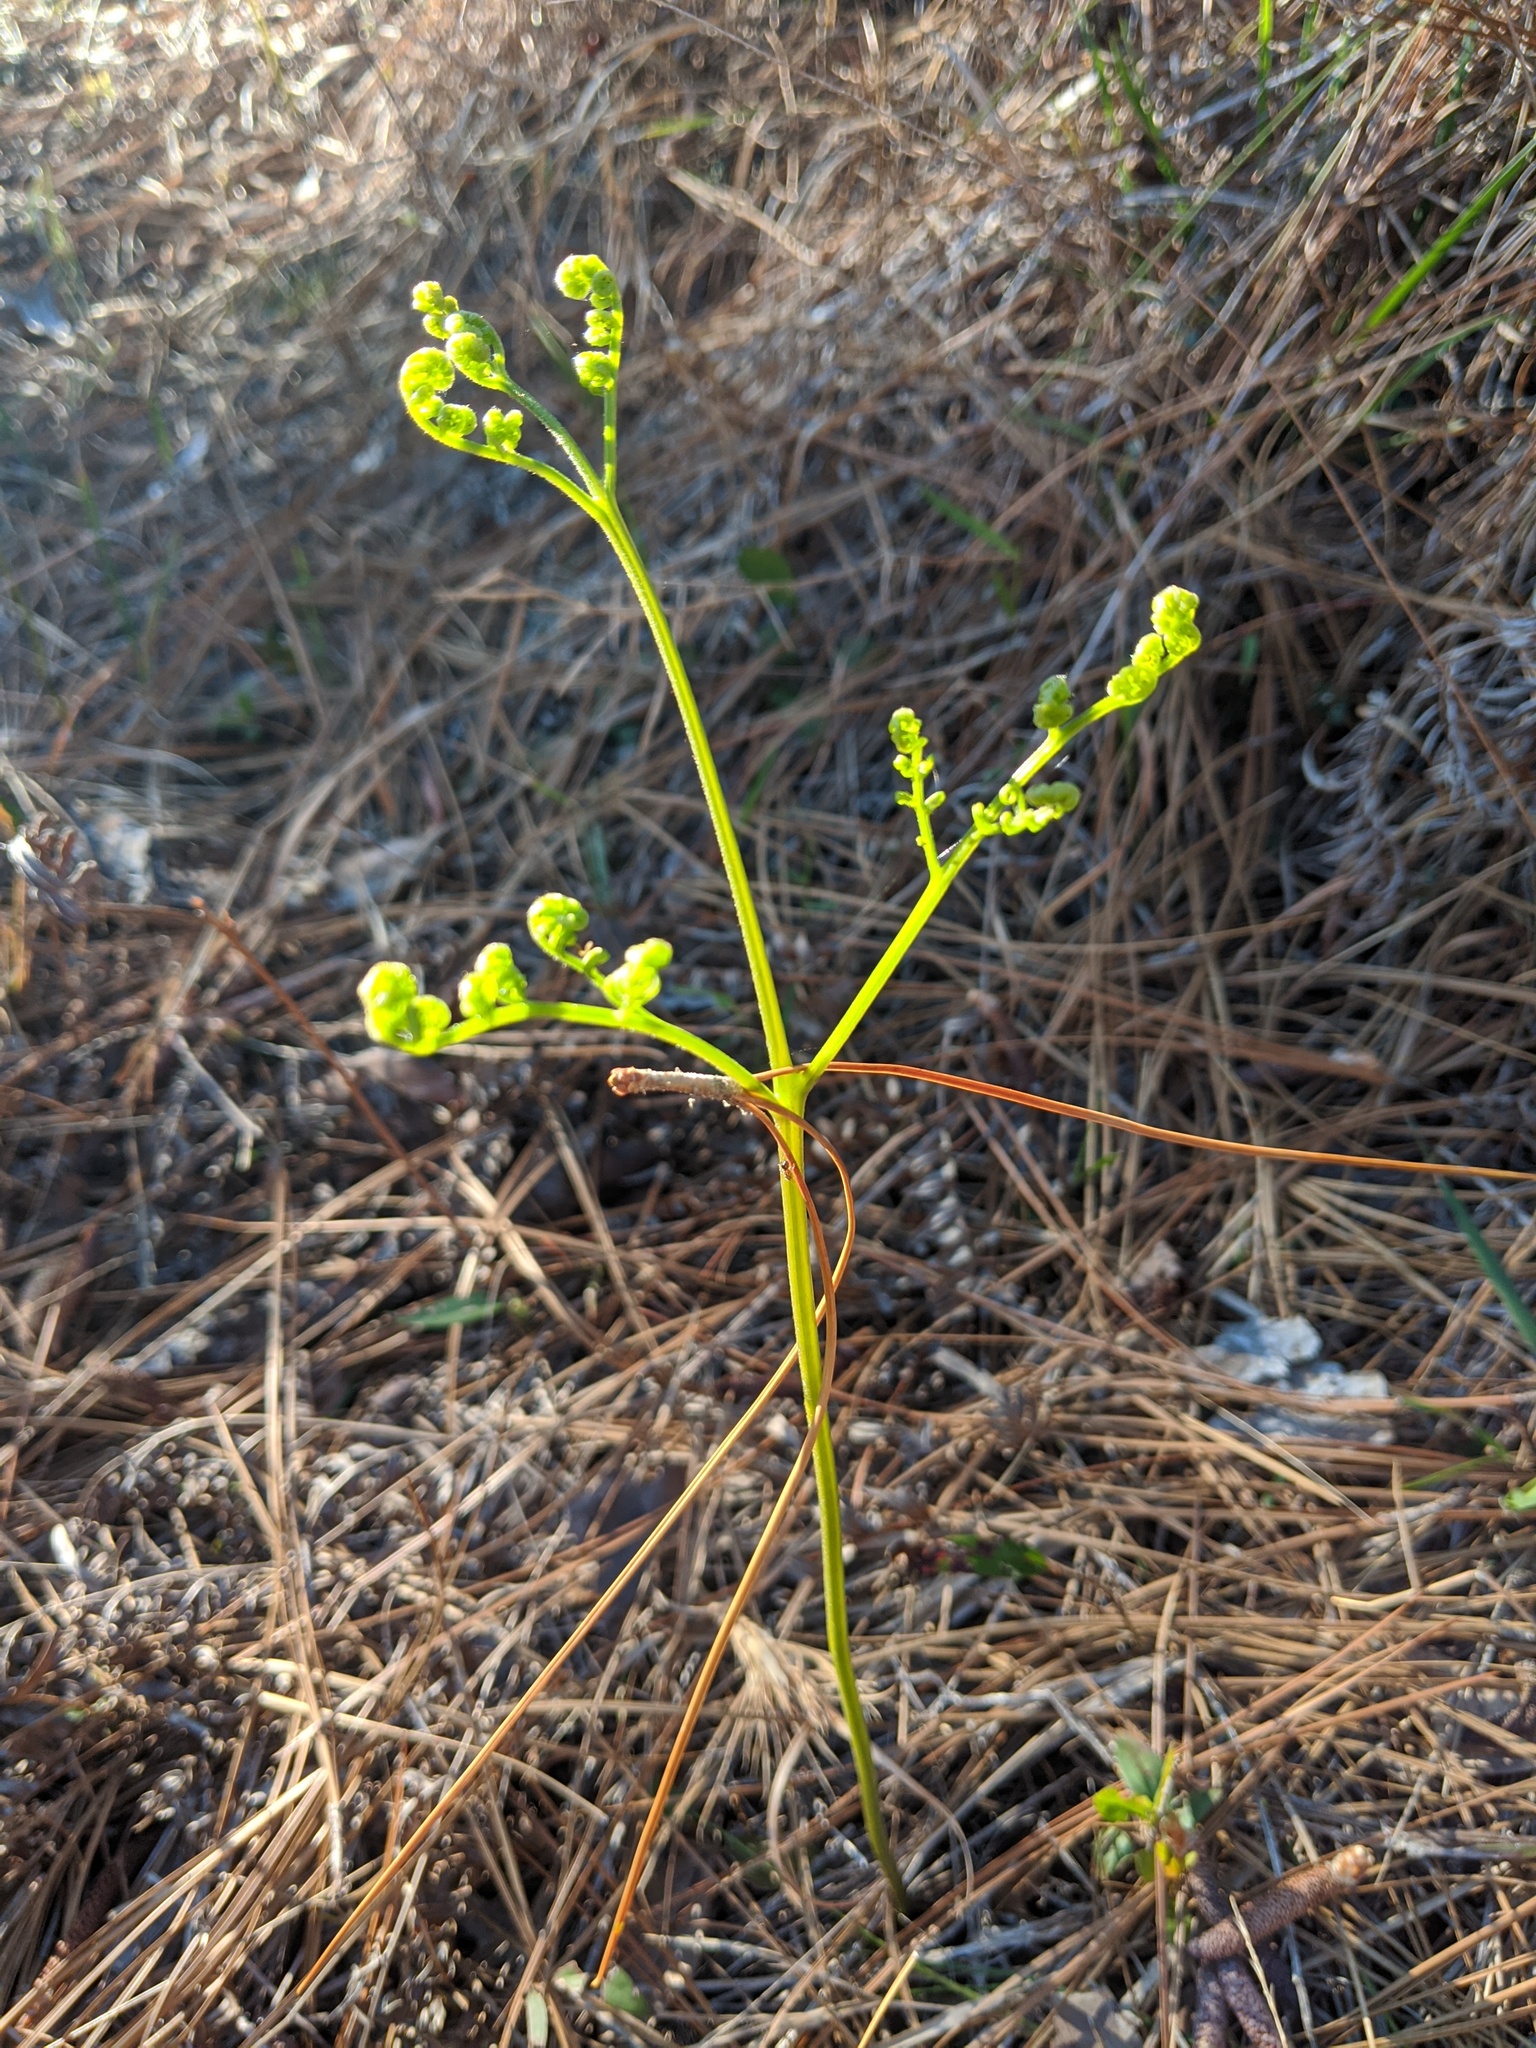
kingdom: Plantae
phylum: Tracheophyta
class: Polypodiopsida
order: Polypodiales
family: Dennstaedtiaceae
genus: Pteridium
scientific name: Pteridium aquilinum
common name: Bracken
